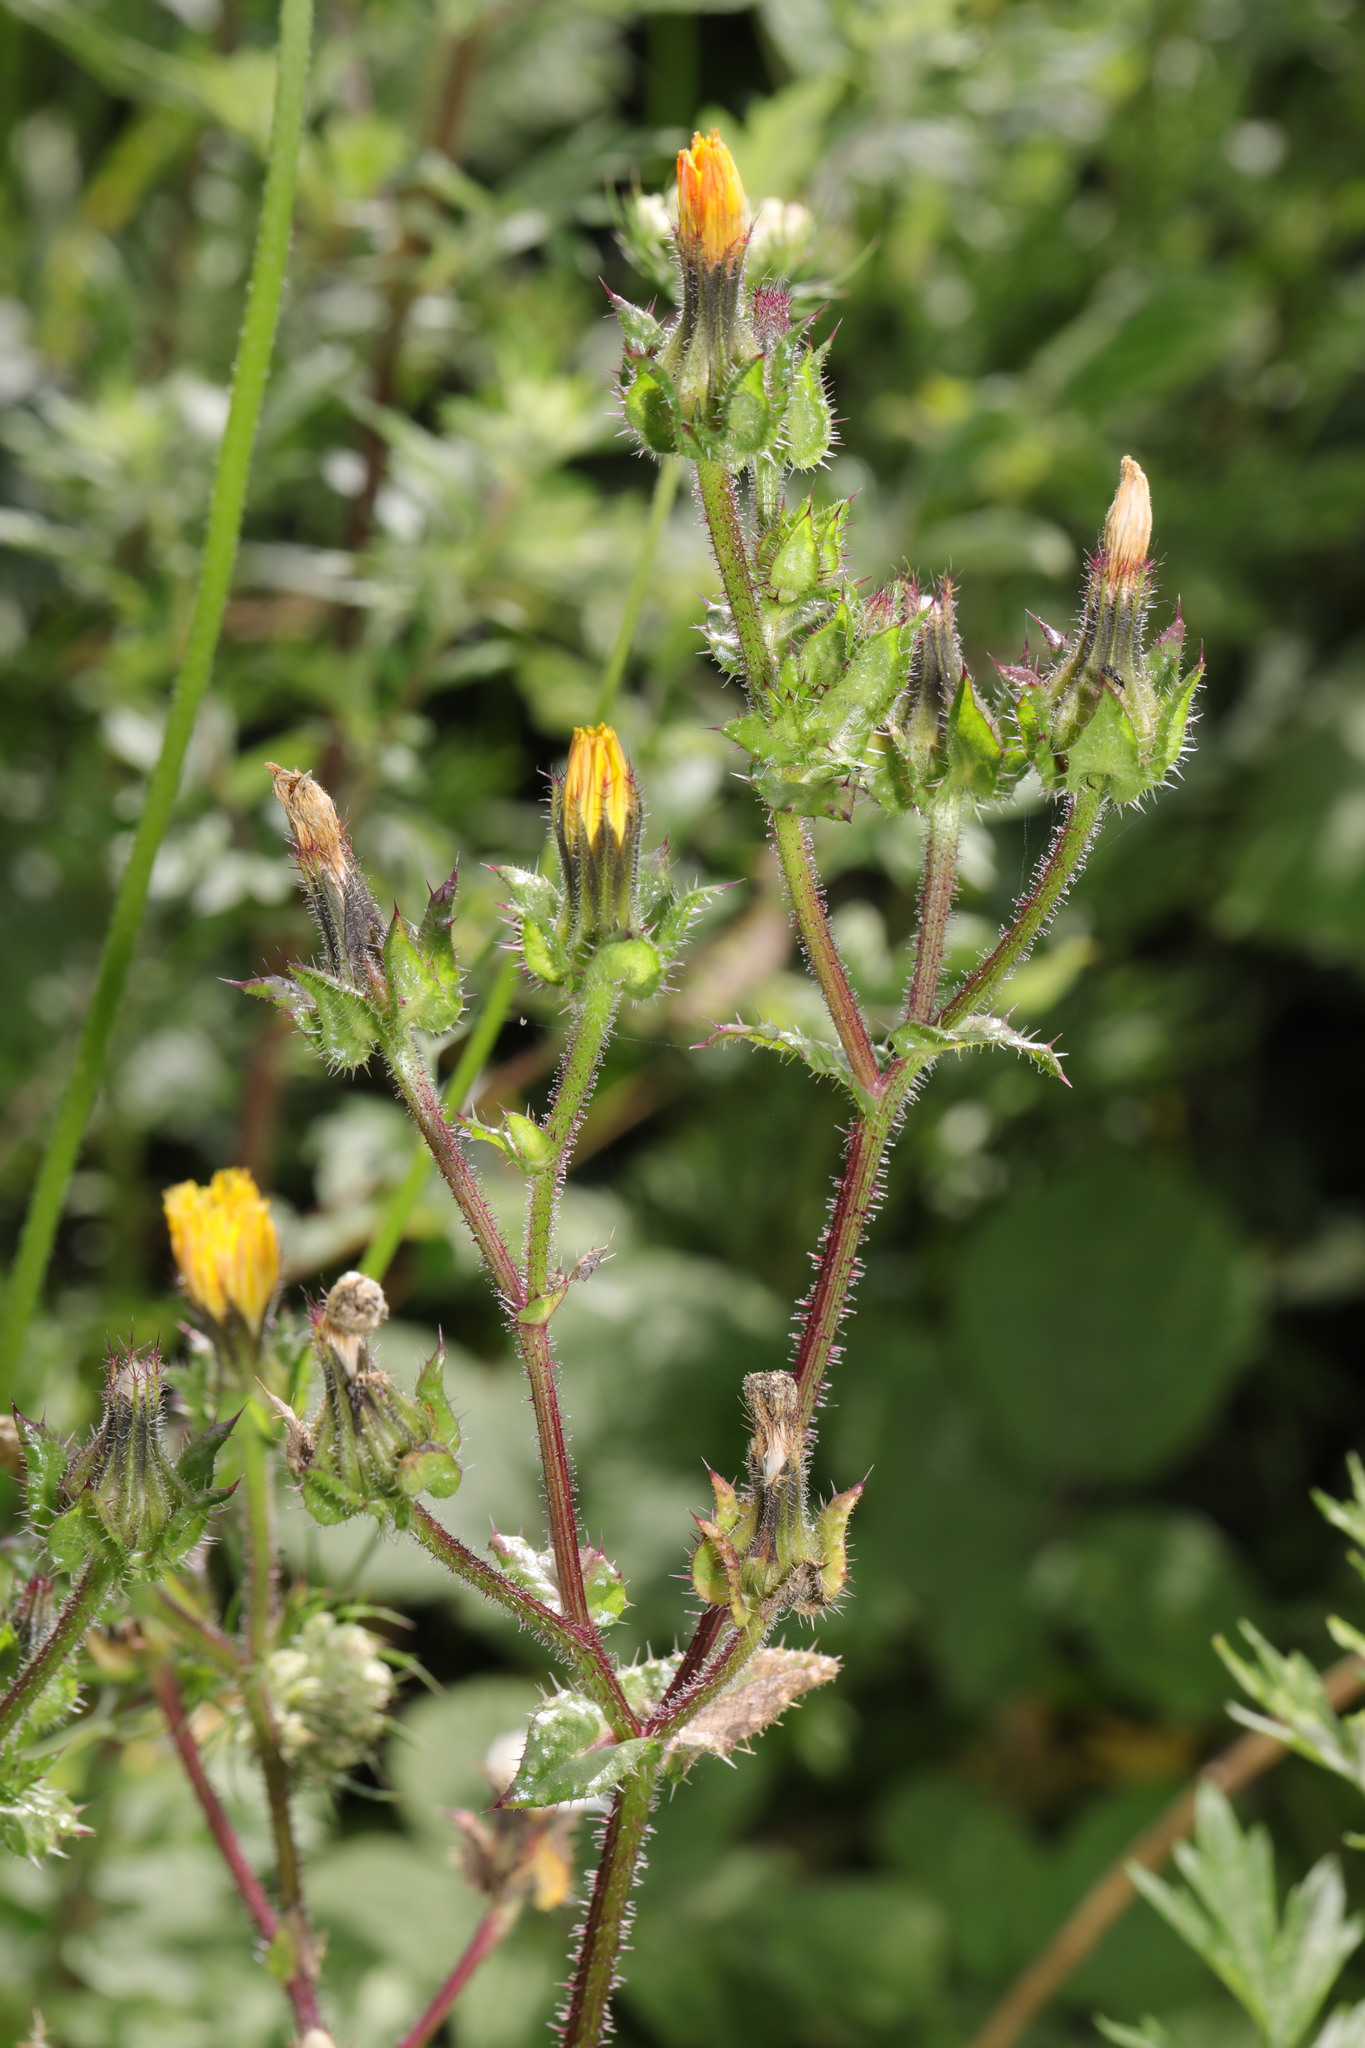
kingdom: Plantae
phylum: Tracheophyta
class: Magnoliopsida
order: Asterales
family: Asteraceae
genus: Helminthotheca
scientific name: Helminthotheca echioides
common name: Ox-tongue
